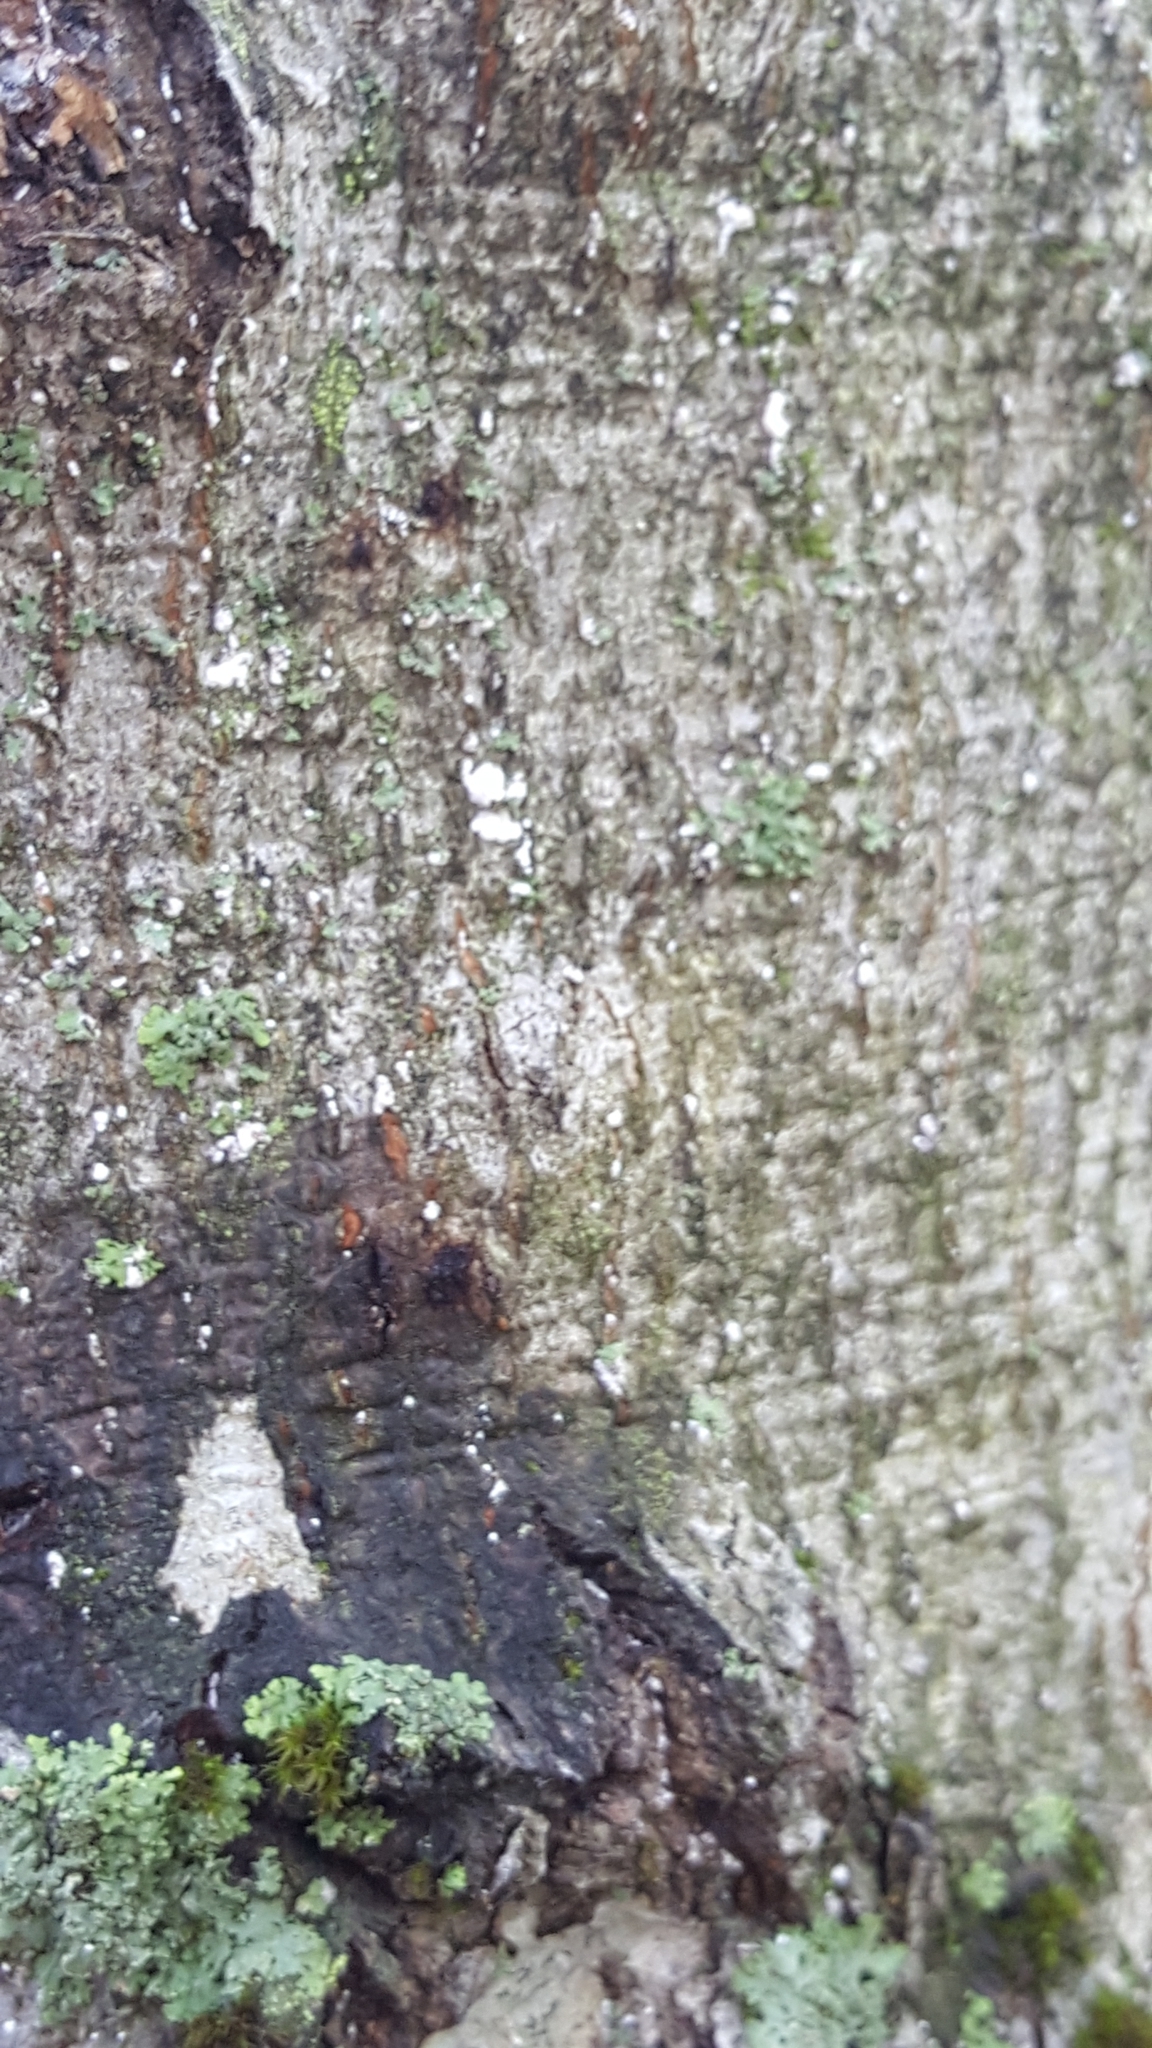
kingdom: Animalia
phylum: Arthropoda
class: Insecta
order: Hemiptera
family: Eriococcidae
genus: Cryptococcus
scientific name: Cryptococcus fagisuga
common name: Beech scale
